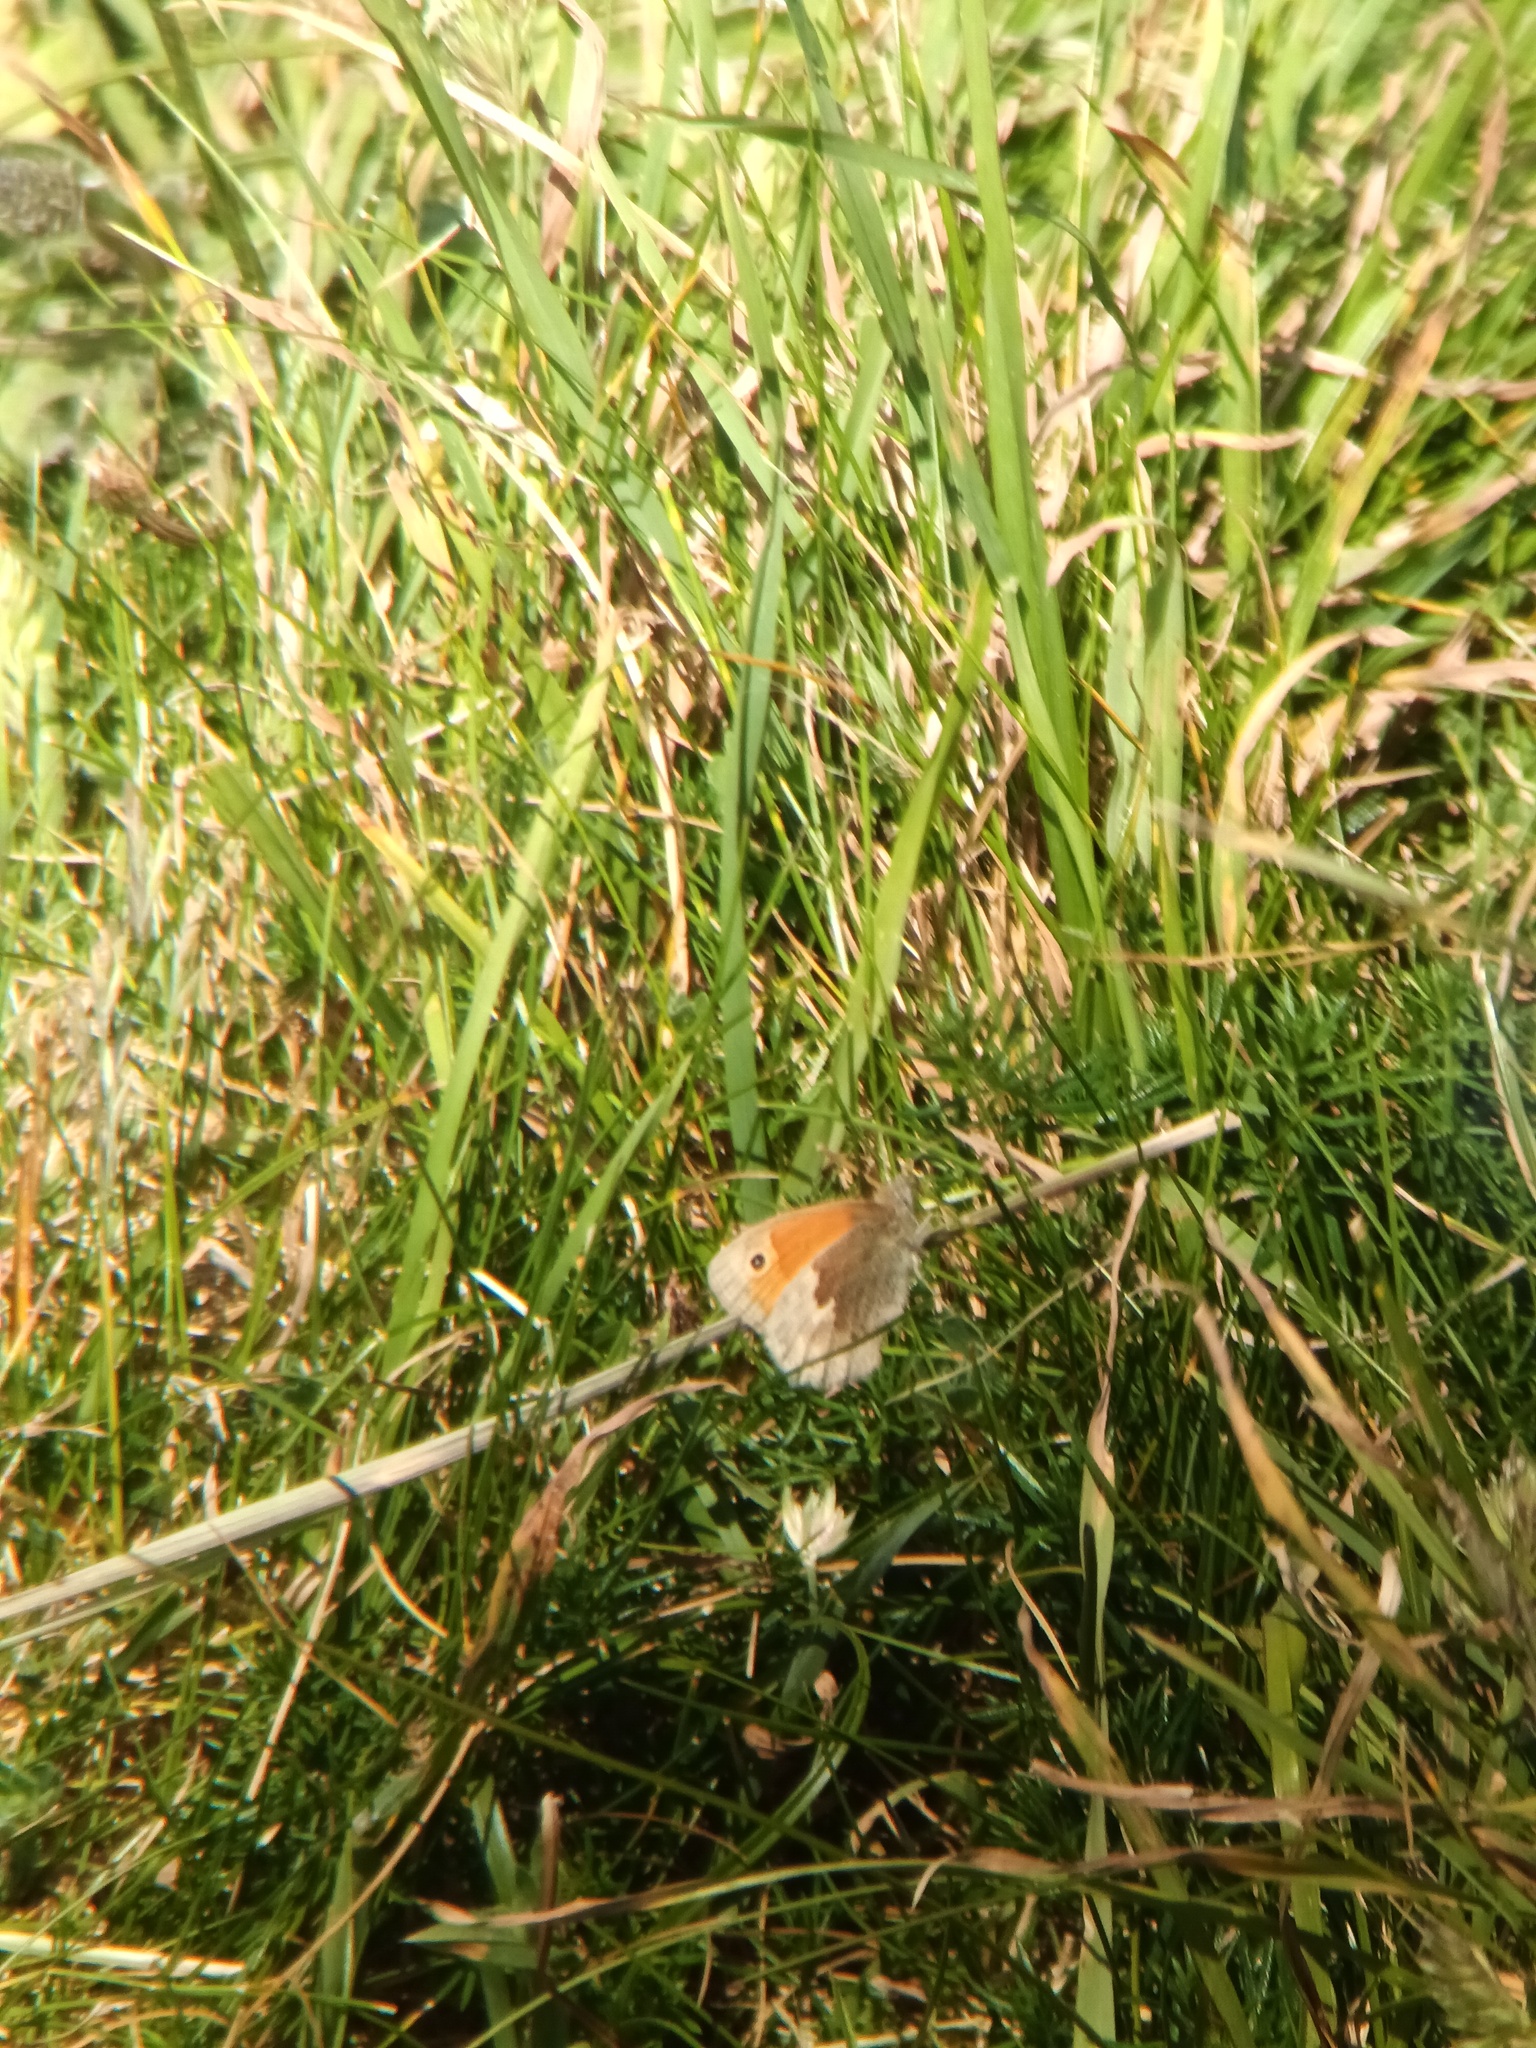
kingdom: Animalia
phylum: Arthropoda
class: Insecta
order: Lepidoptera
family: Nymphalidae
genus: Coenonympha
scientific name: Coenonympha pamphilus
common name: Small heath
